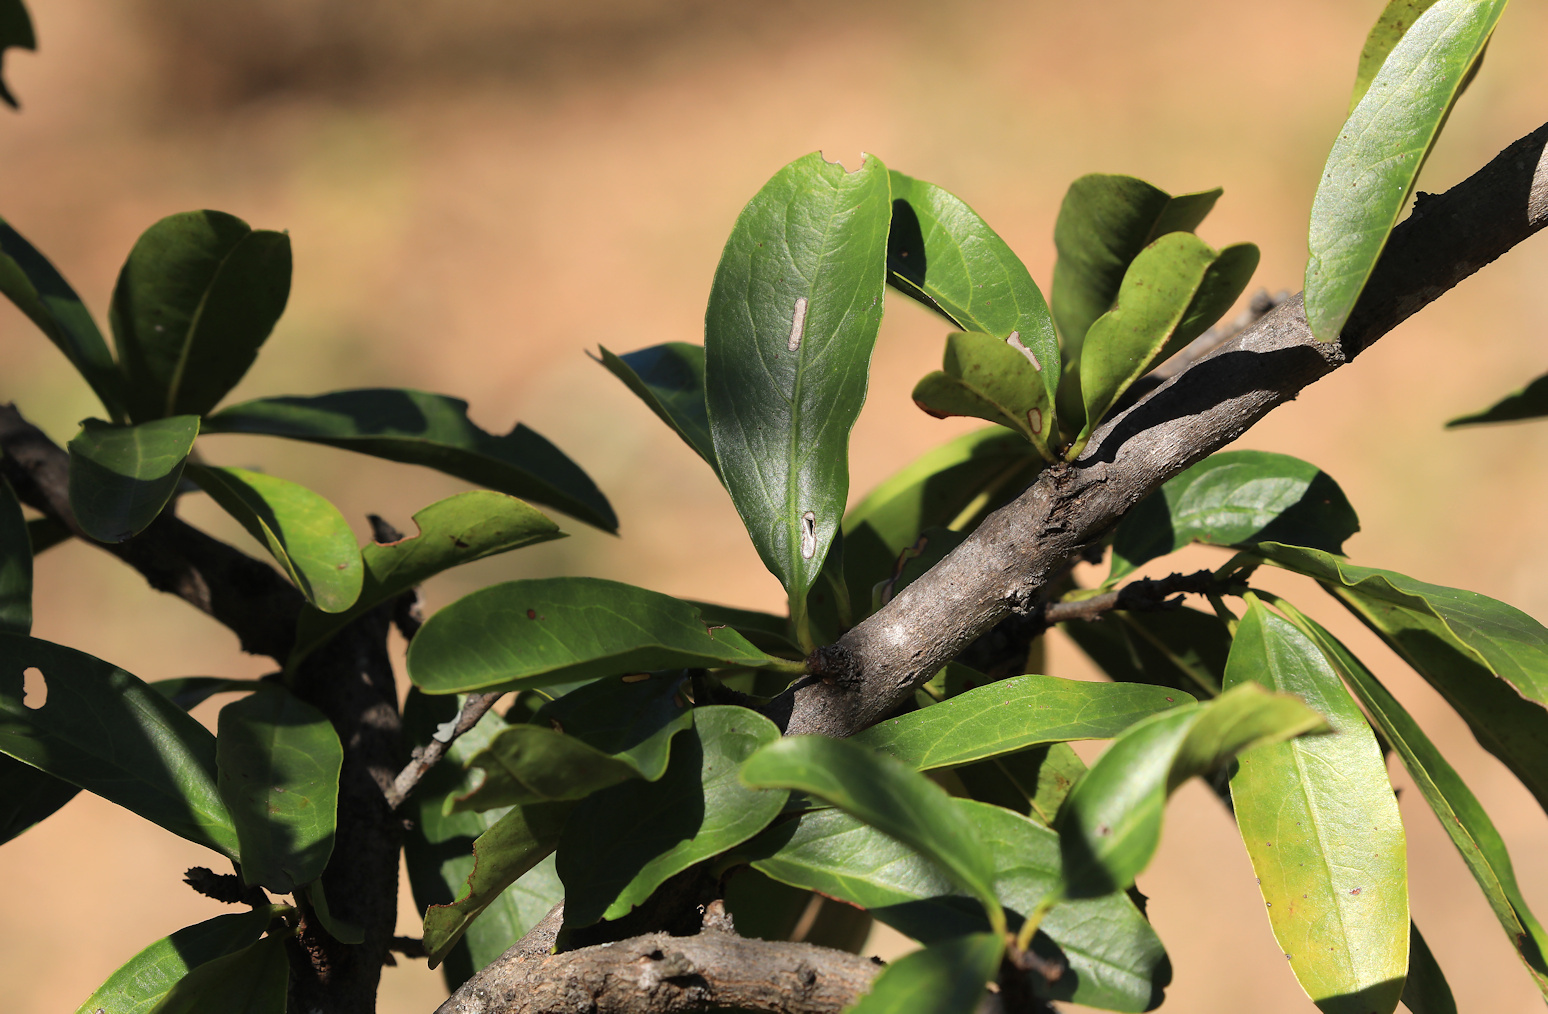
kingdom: Plantae
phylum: Tracheophyta
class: Magnoliopsida
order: Santalales
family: Ximeniaceae
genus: Ximenia
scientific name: Ximenia caffra
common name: Large sourplum
